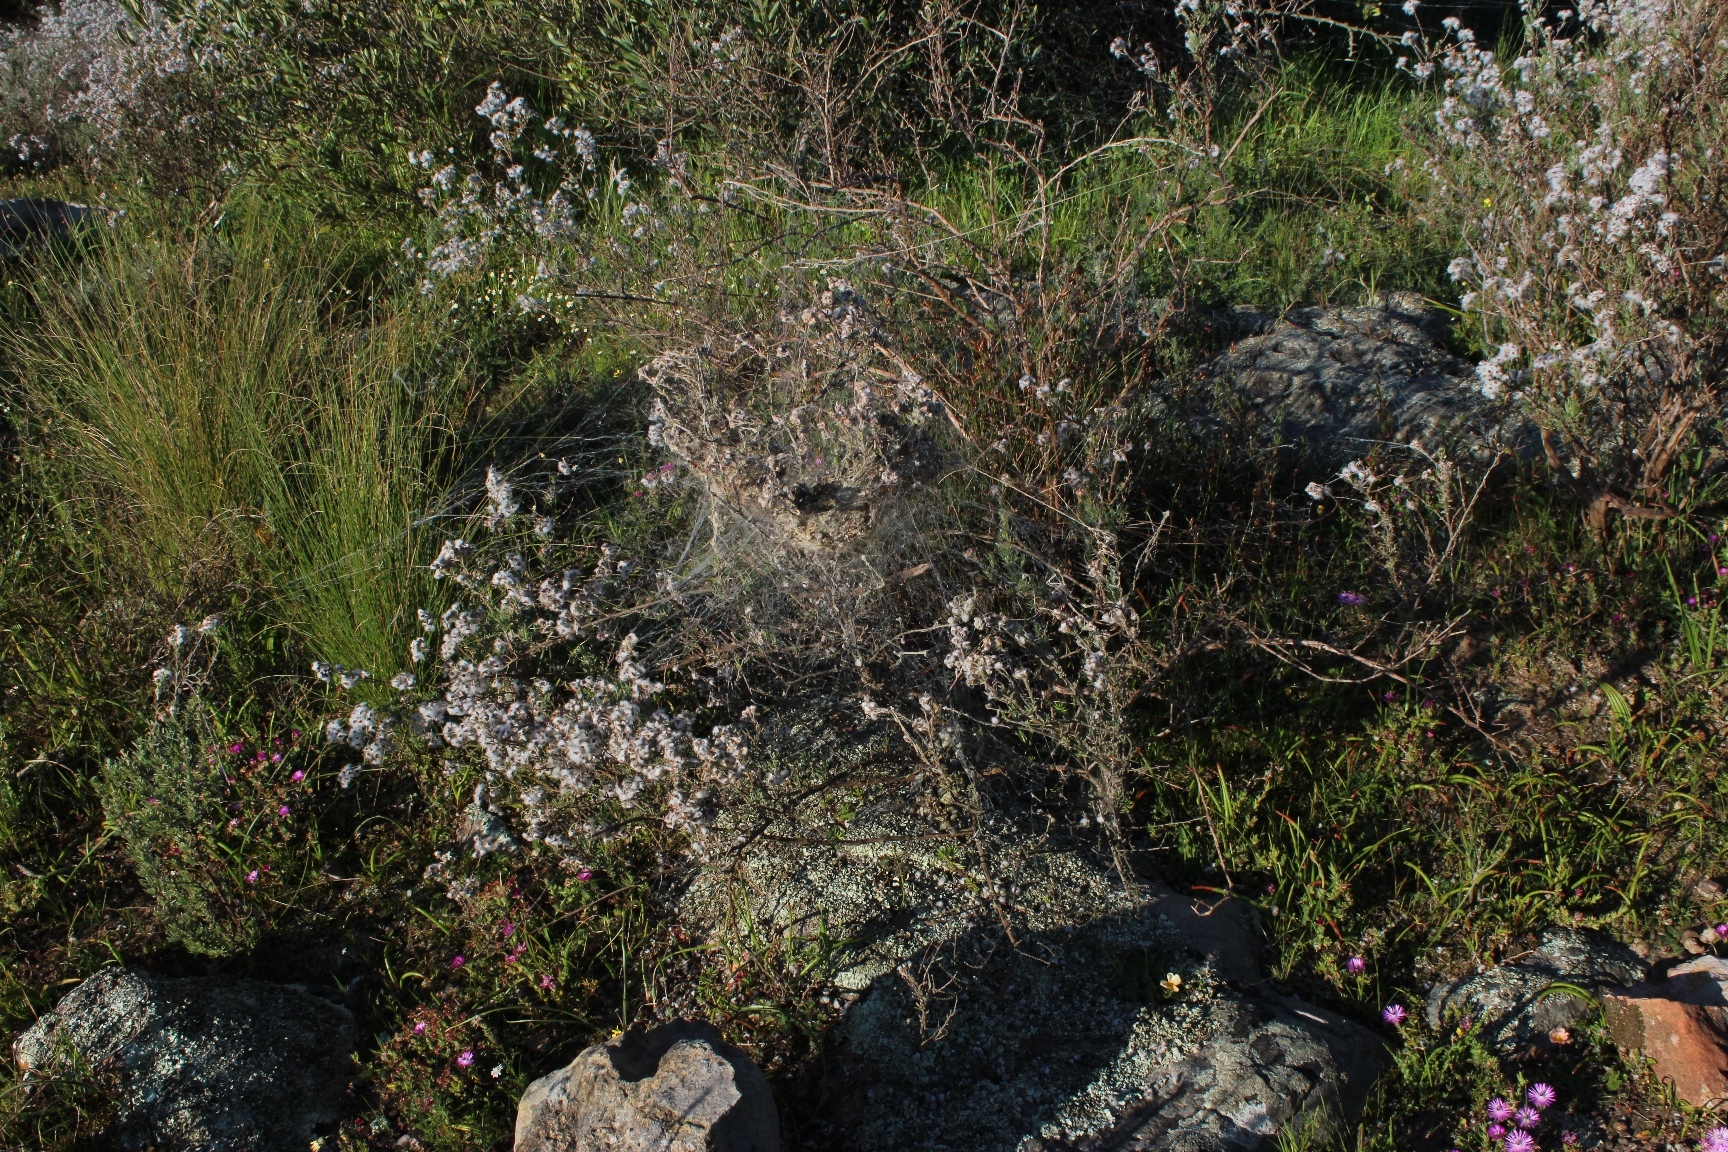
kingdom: Plantae
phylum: Tracheophyta
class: Magnoliopsida
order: Asterales
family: Asteraceae
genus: Eriocephalus
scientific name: Eriocephalus africanus
